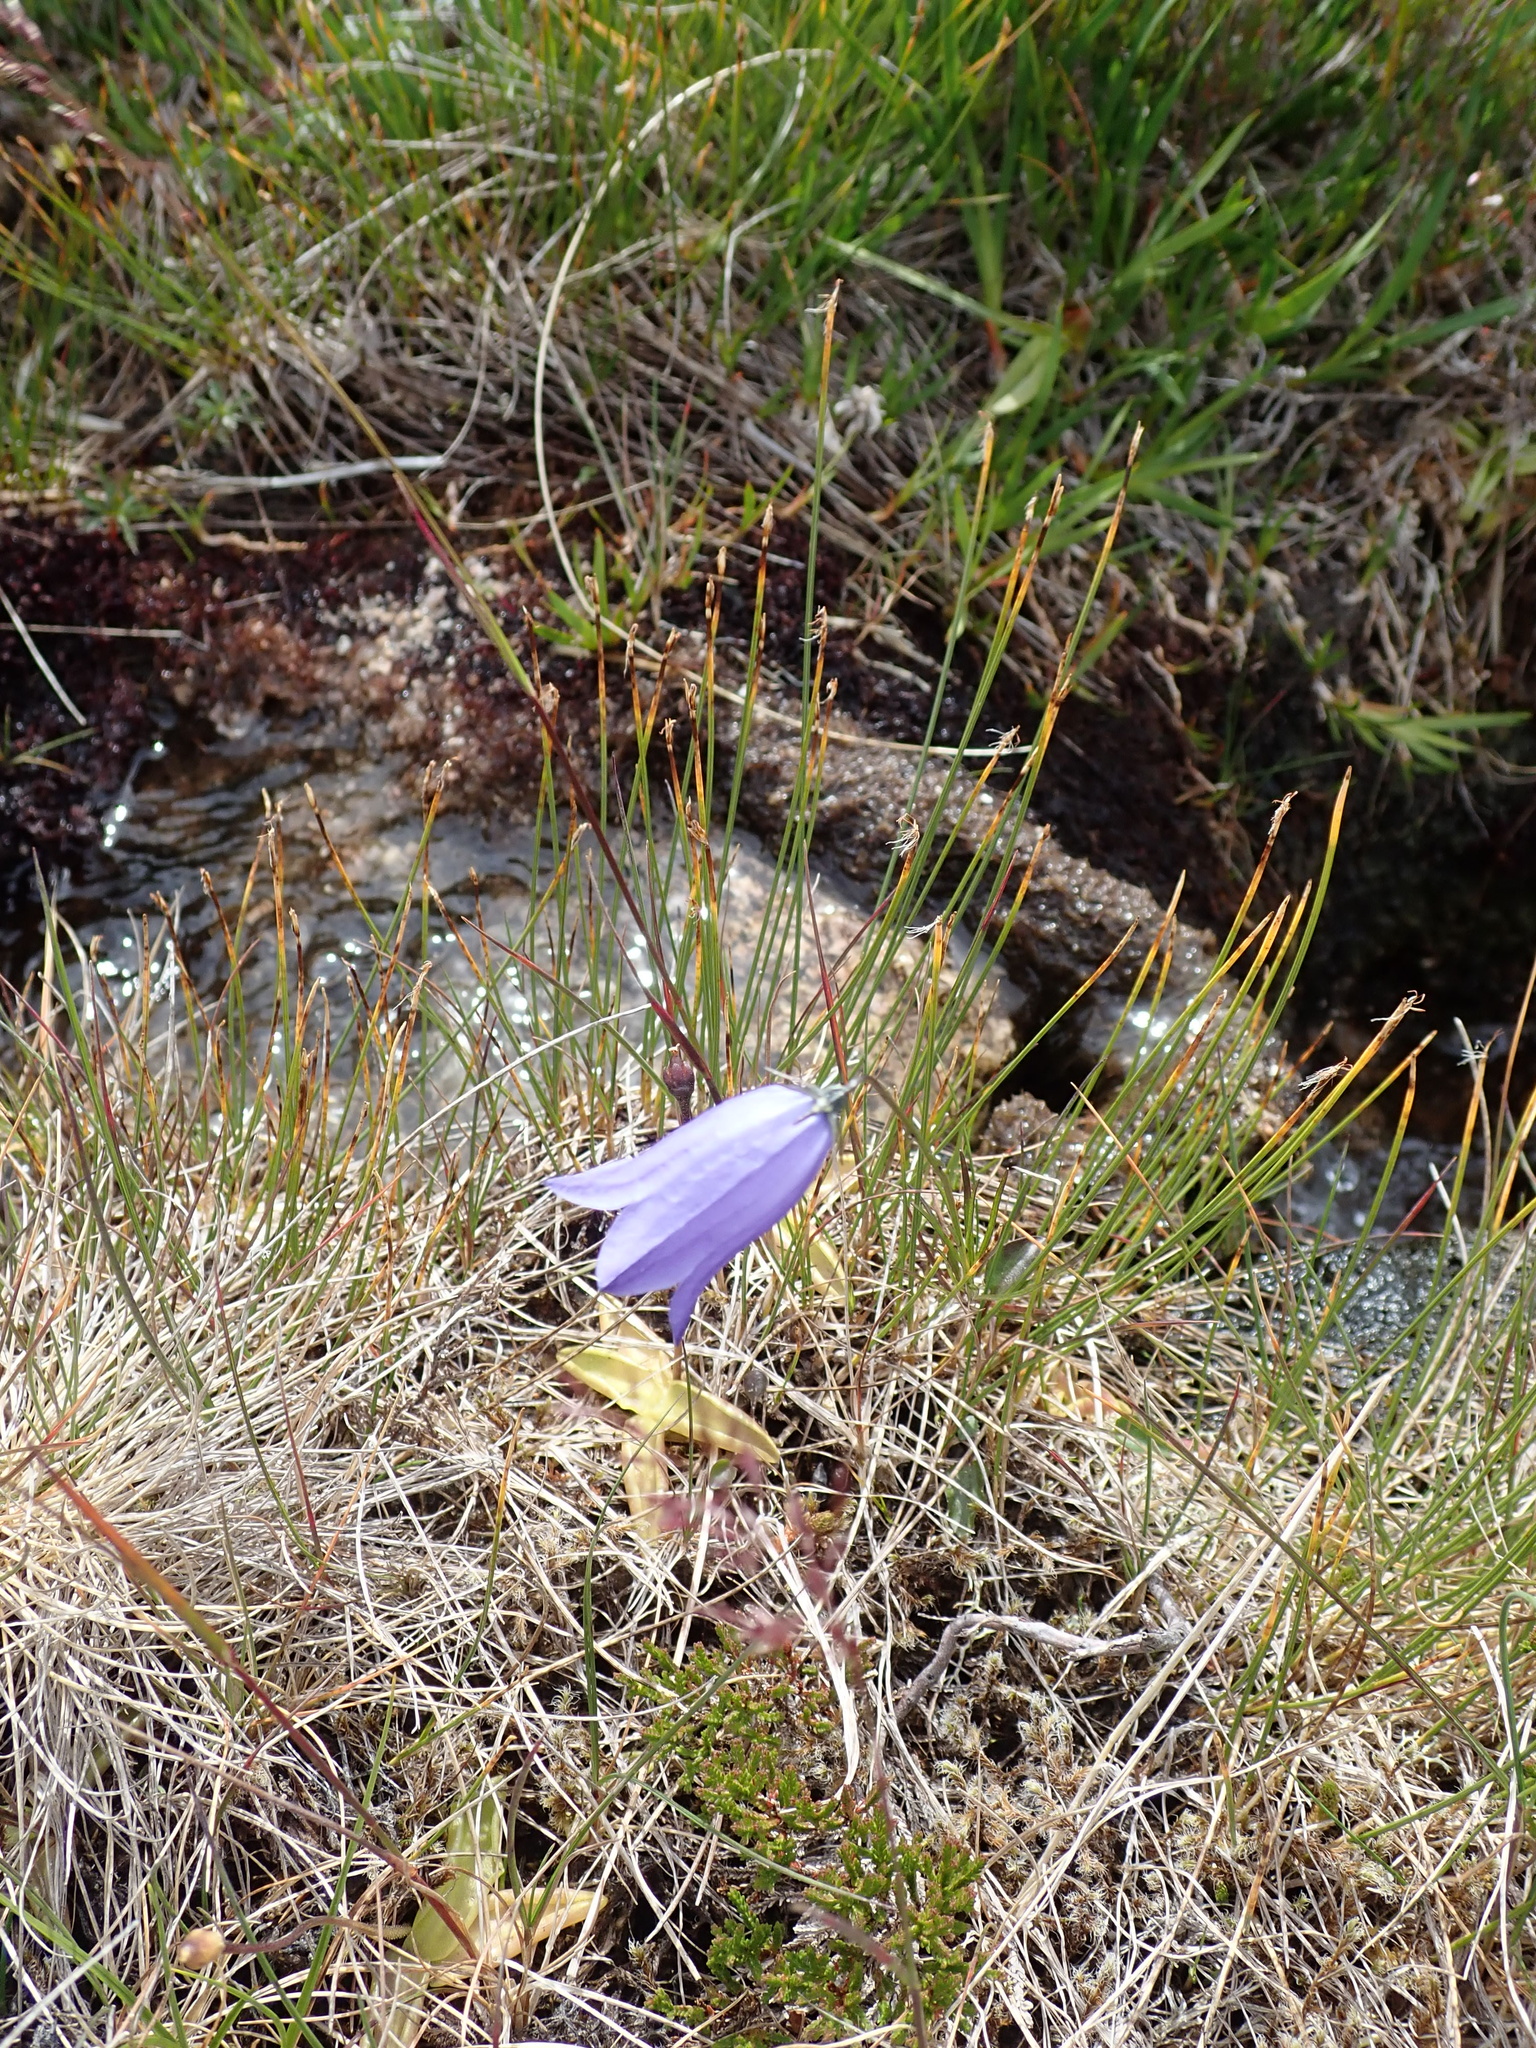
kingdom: Plantae
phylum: Tracheophyta
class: Magnoliopsida
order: Asterales
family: Campanulaceae
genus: Campanula
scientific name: Campanula rotundifolia
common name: Harebell
